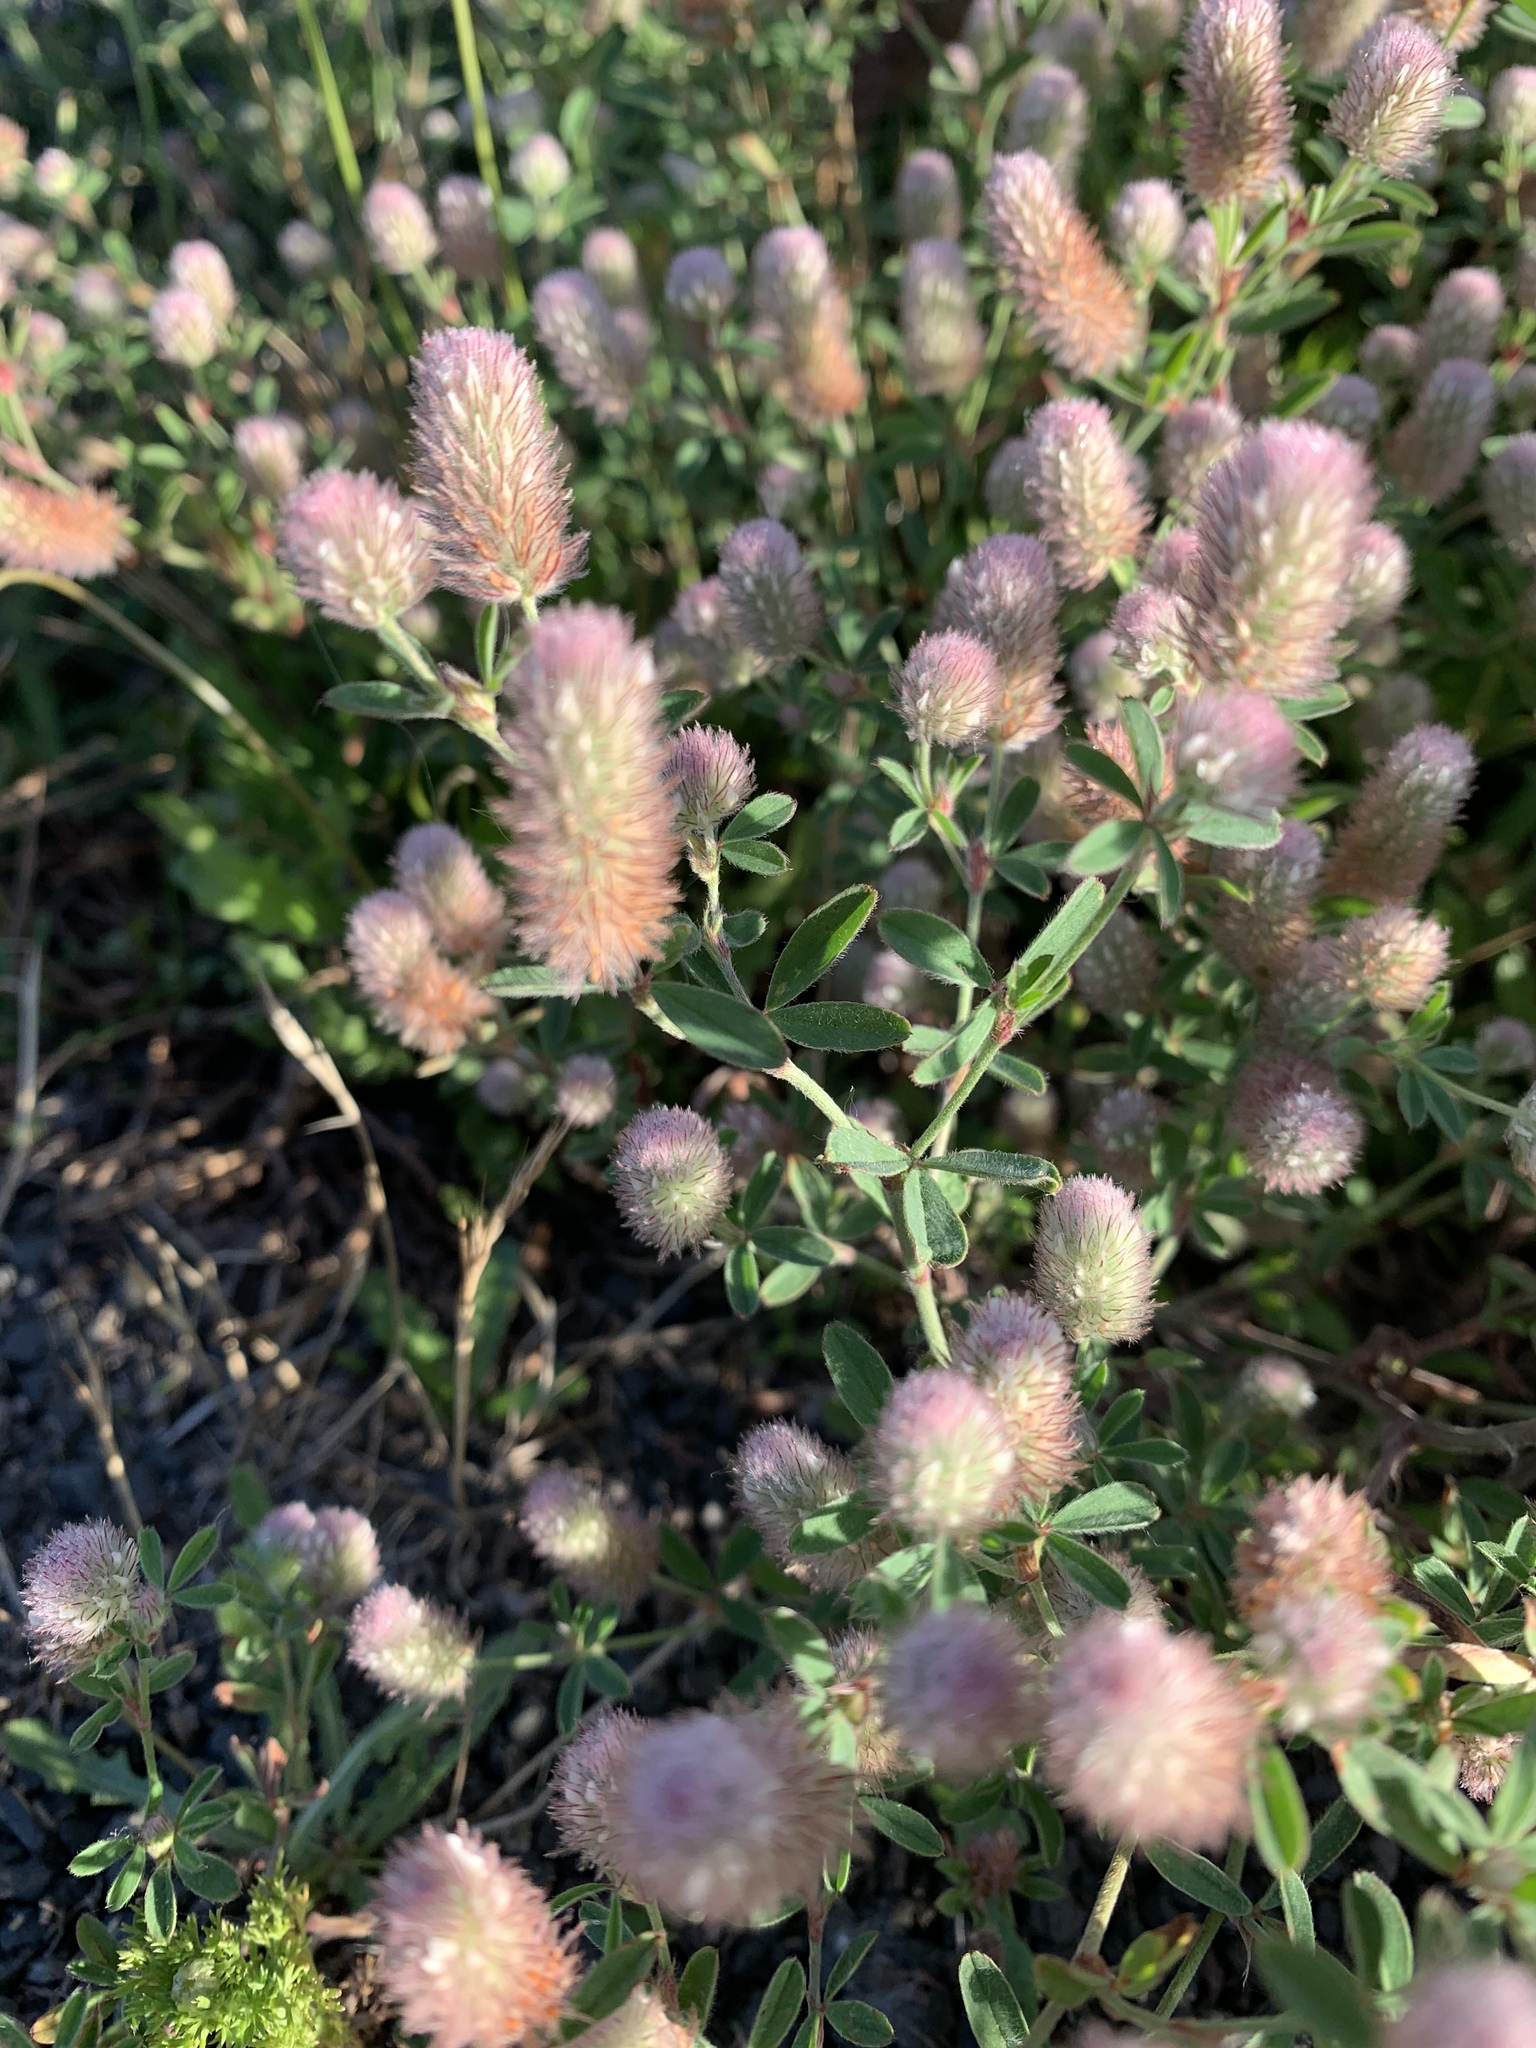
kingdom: Plantae
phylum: Tracheophyta
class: Magnoliopsida
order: Fabales
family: Fabaceae
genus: Trifolium
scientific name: Trifolium arvense
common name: Hare's-foot clover
